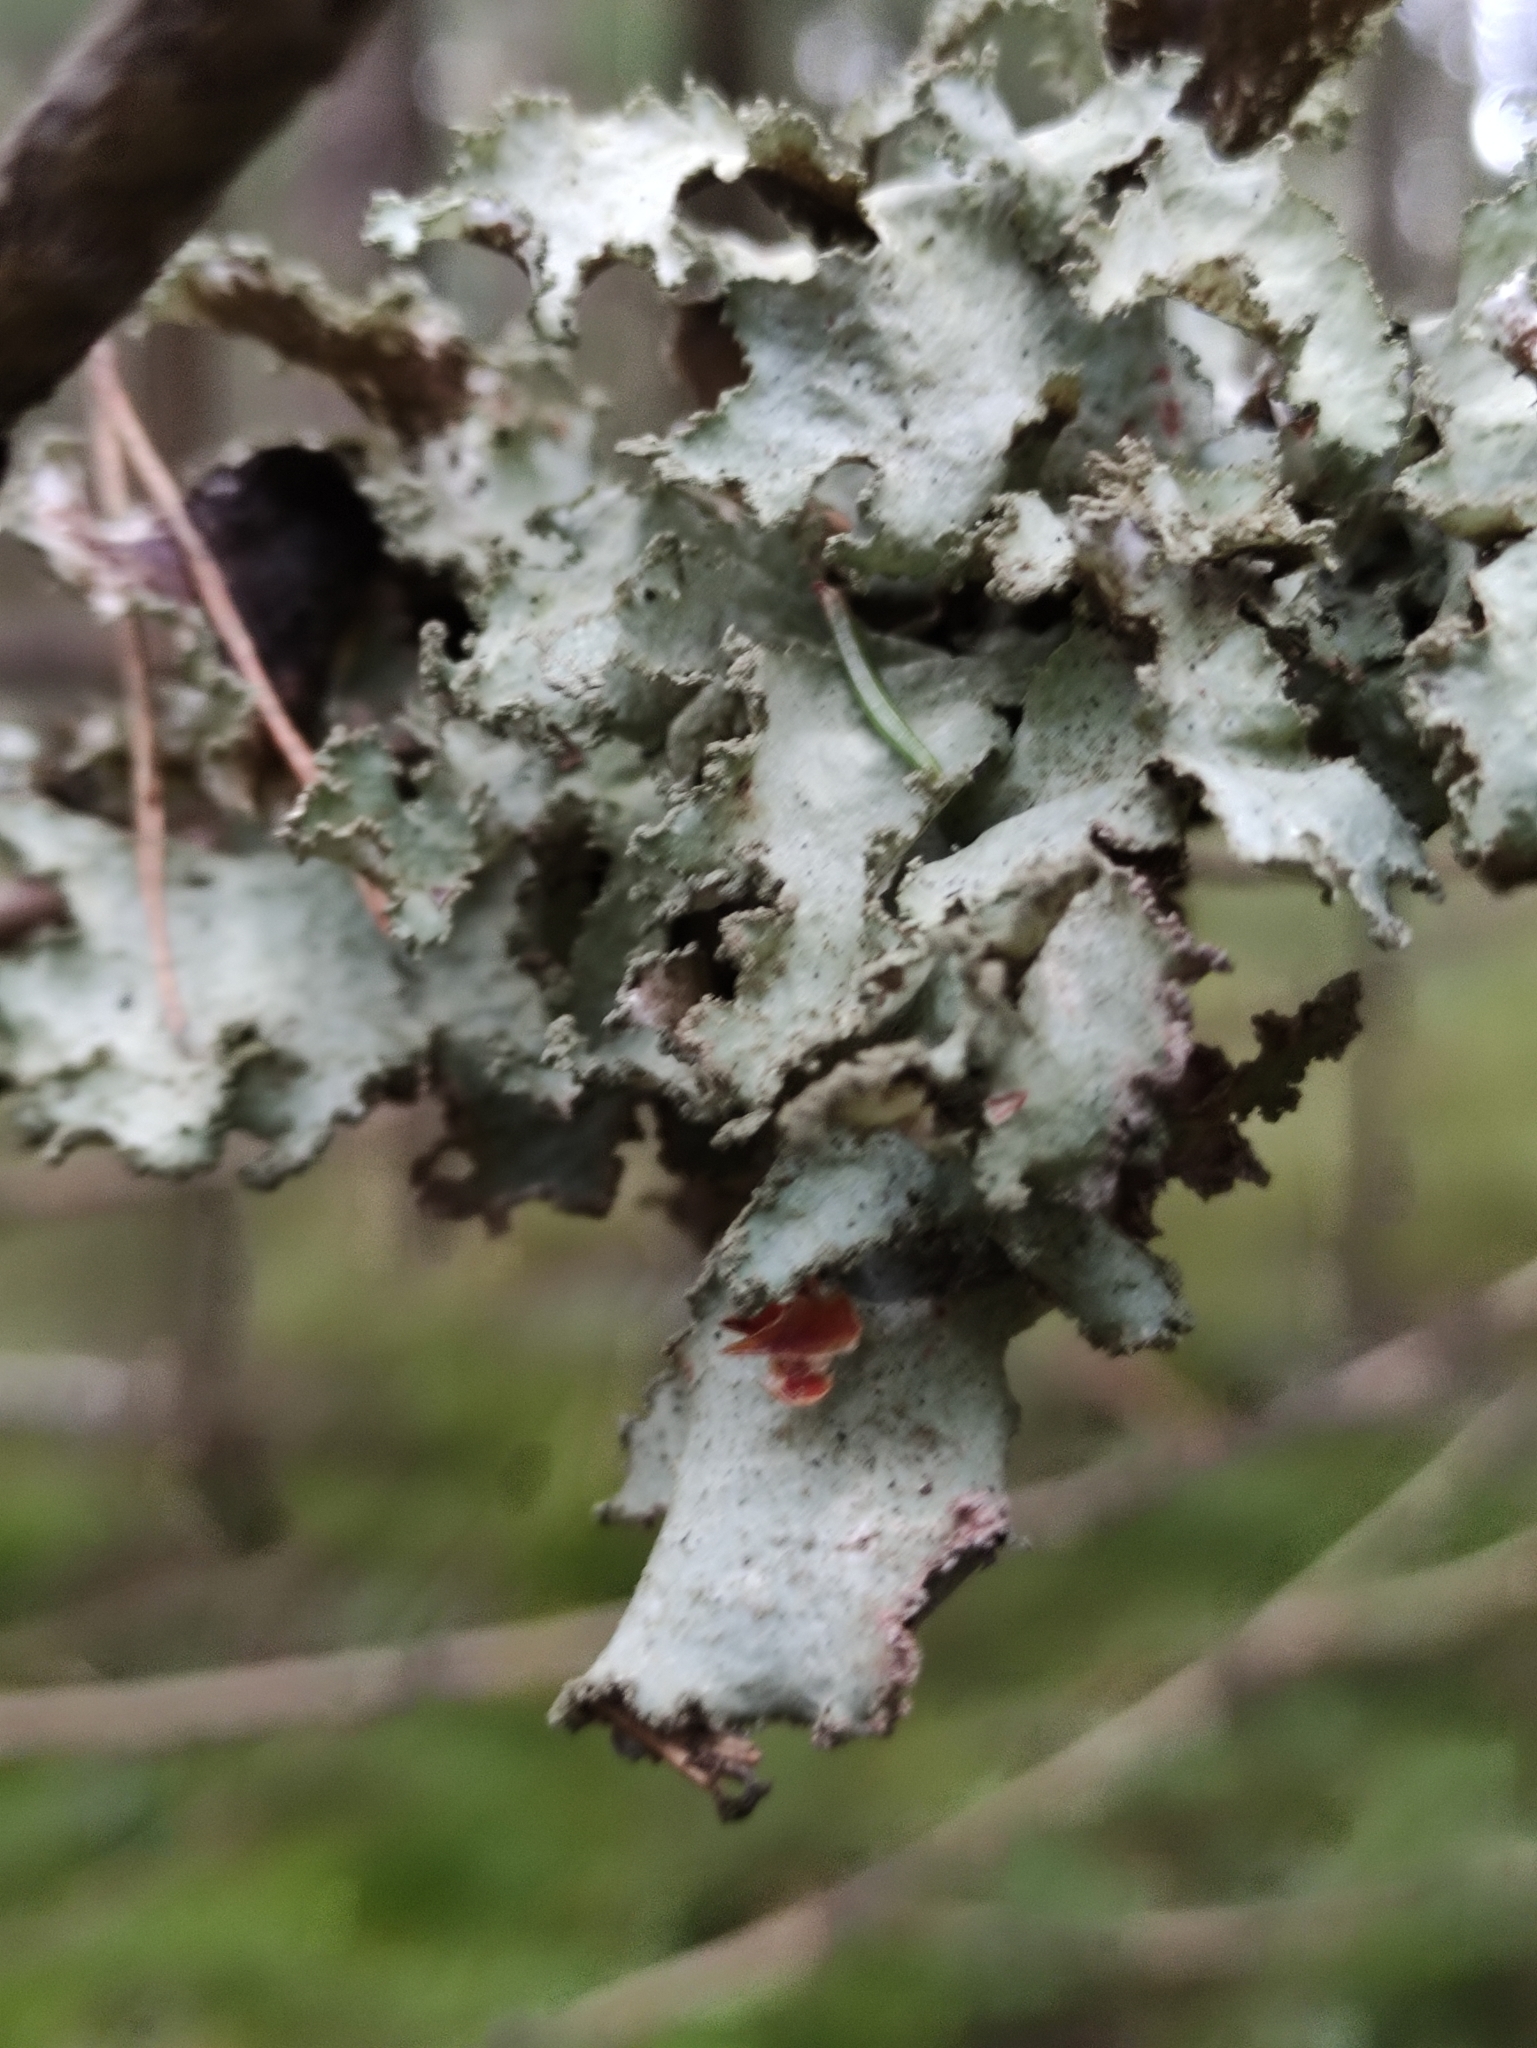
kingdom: Fungi
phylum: Ascomycota
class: Lecanoromycetes
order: Lecanorales
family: Parmeliaceae
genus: Platismatia
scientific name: Platismatia glauca
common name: Varied rag lichen
